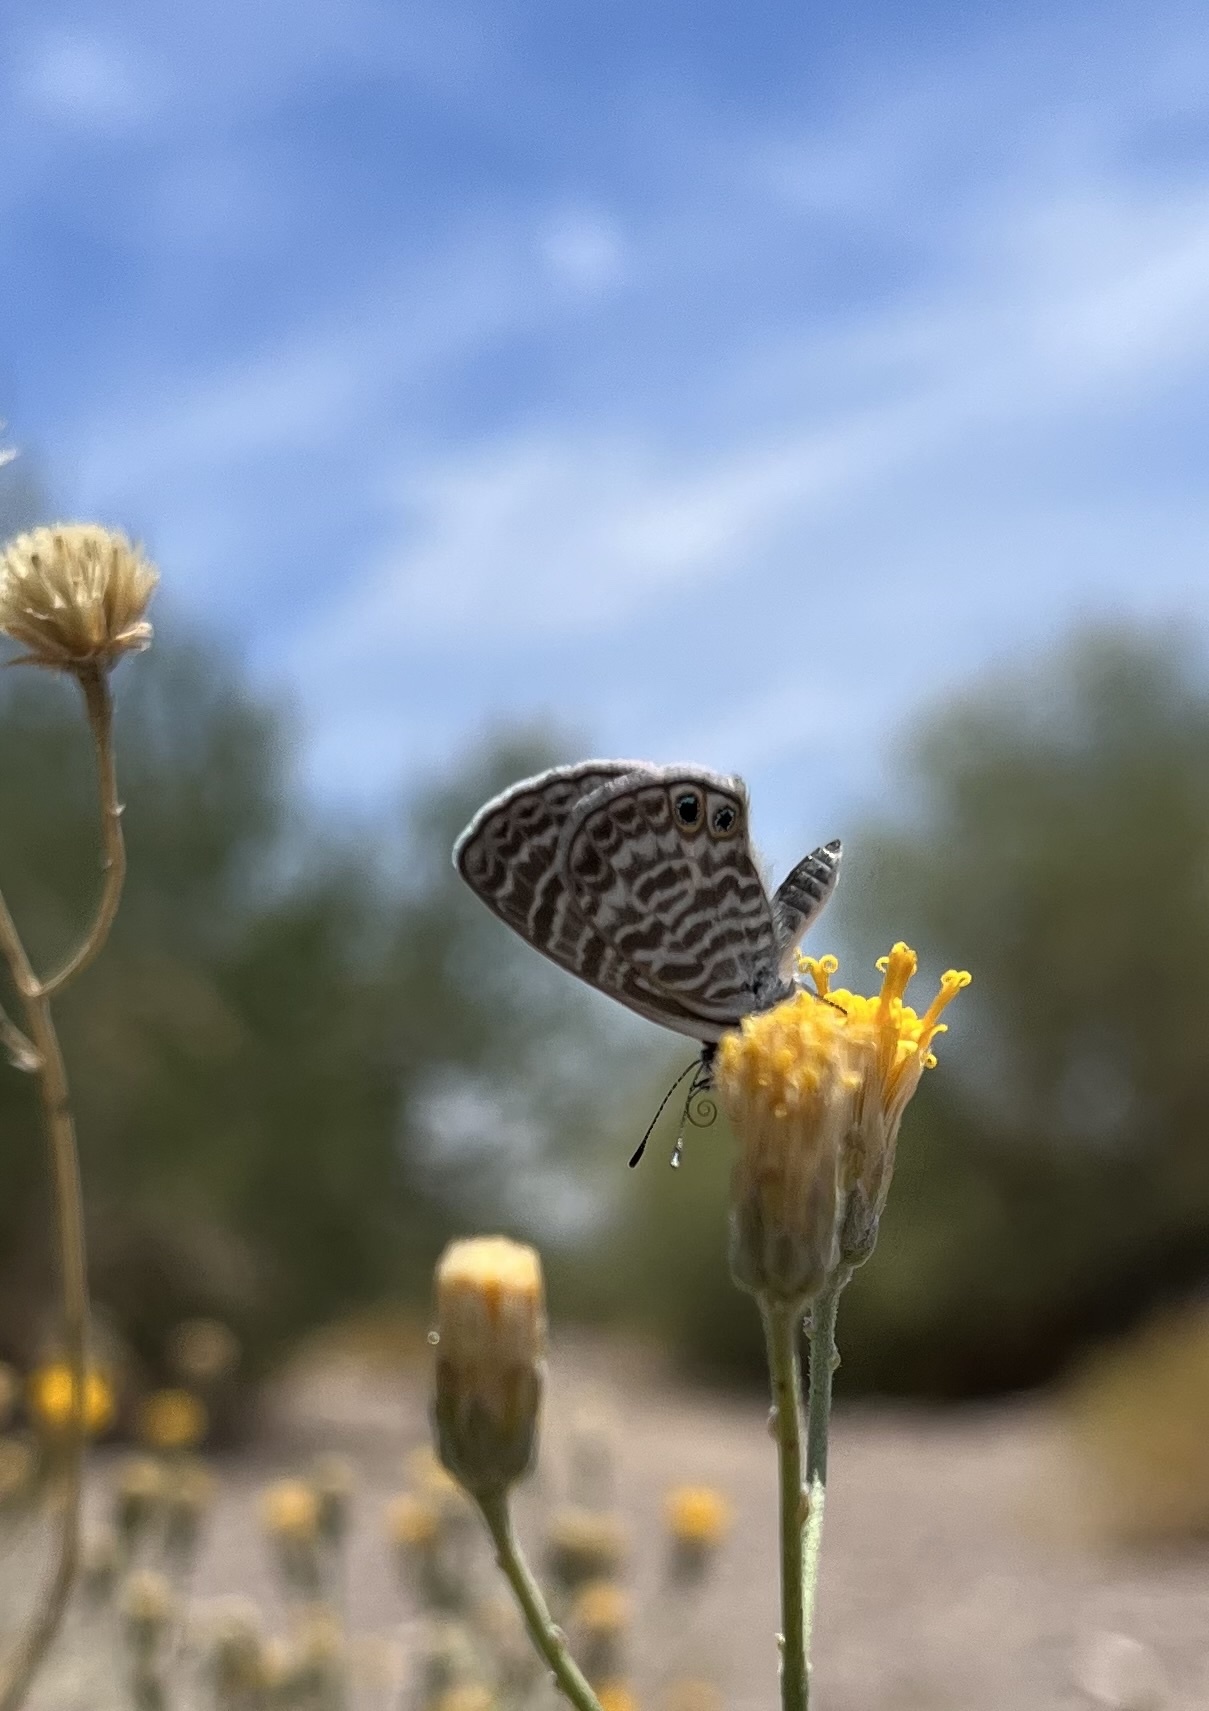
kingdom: Animalia
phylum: Arthropoda
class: Insecta
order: Lepidoptera
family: Lycaenidae
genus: Leptotes
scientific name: Leptotes marina
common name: Marine blue
